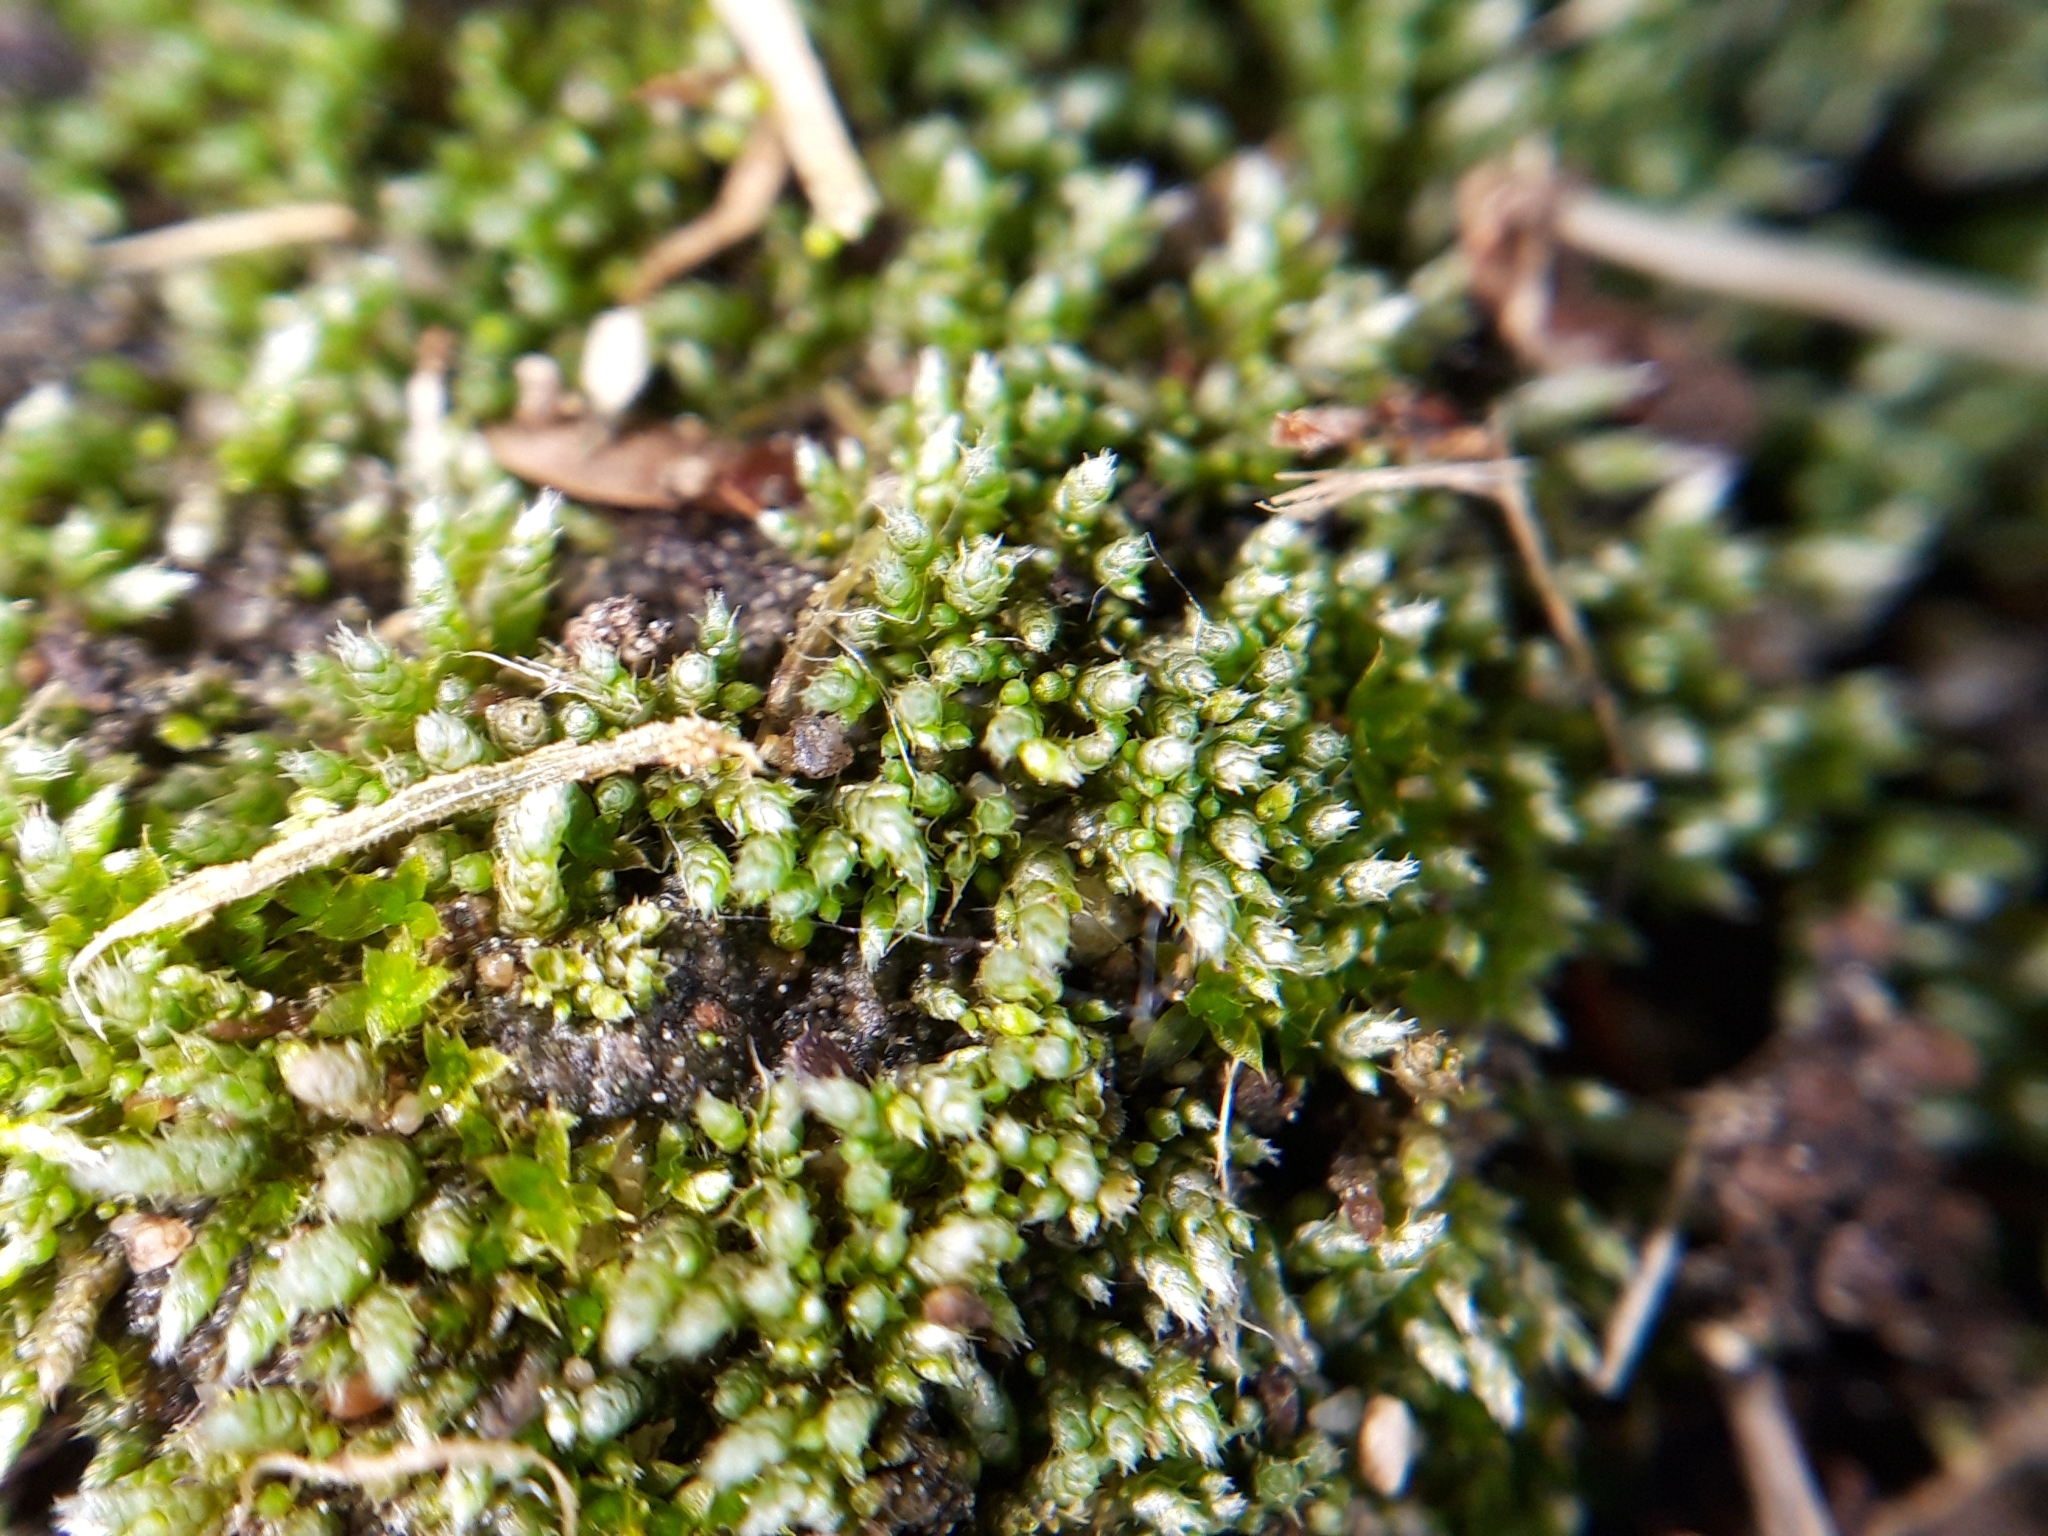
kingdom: Plantae
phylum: Bryophyta
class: Bryopsida
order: Bryales
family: Bryaceae
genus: Bryum
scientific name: Bryum argenteum
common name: Silver-moss
